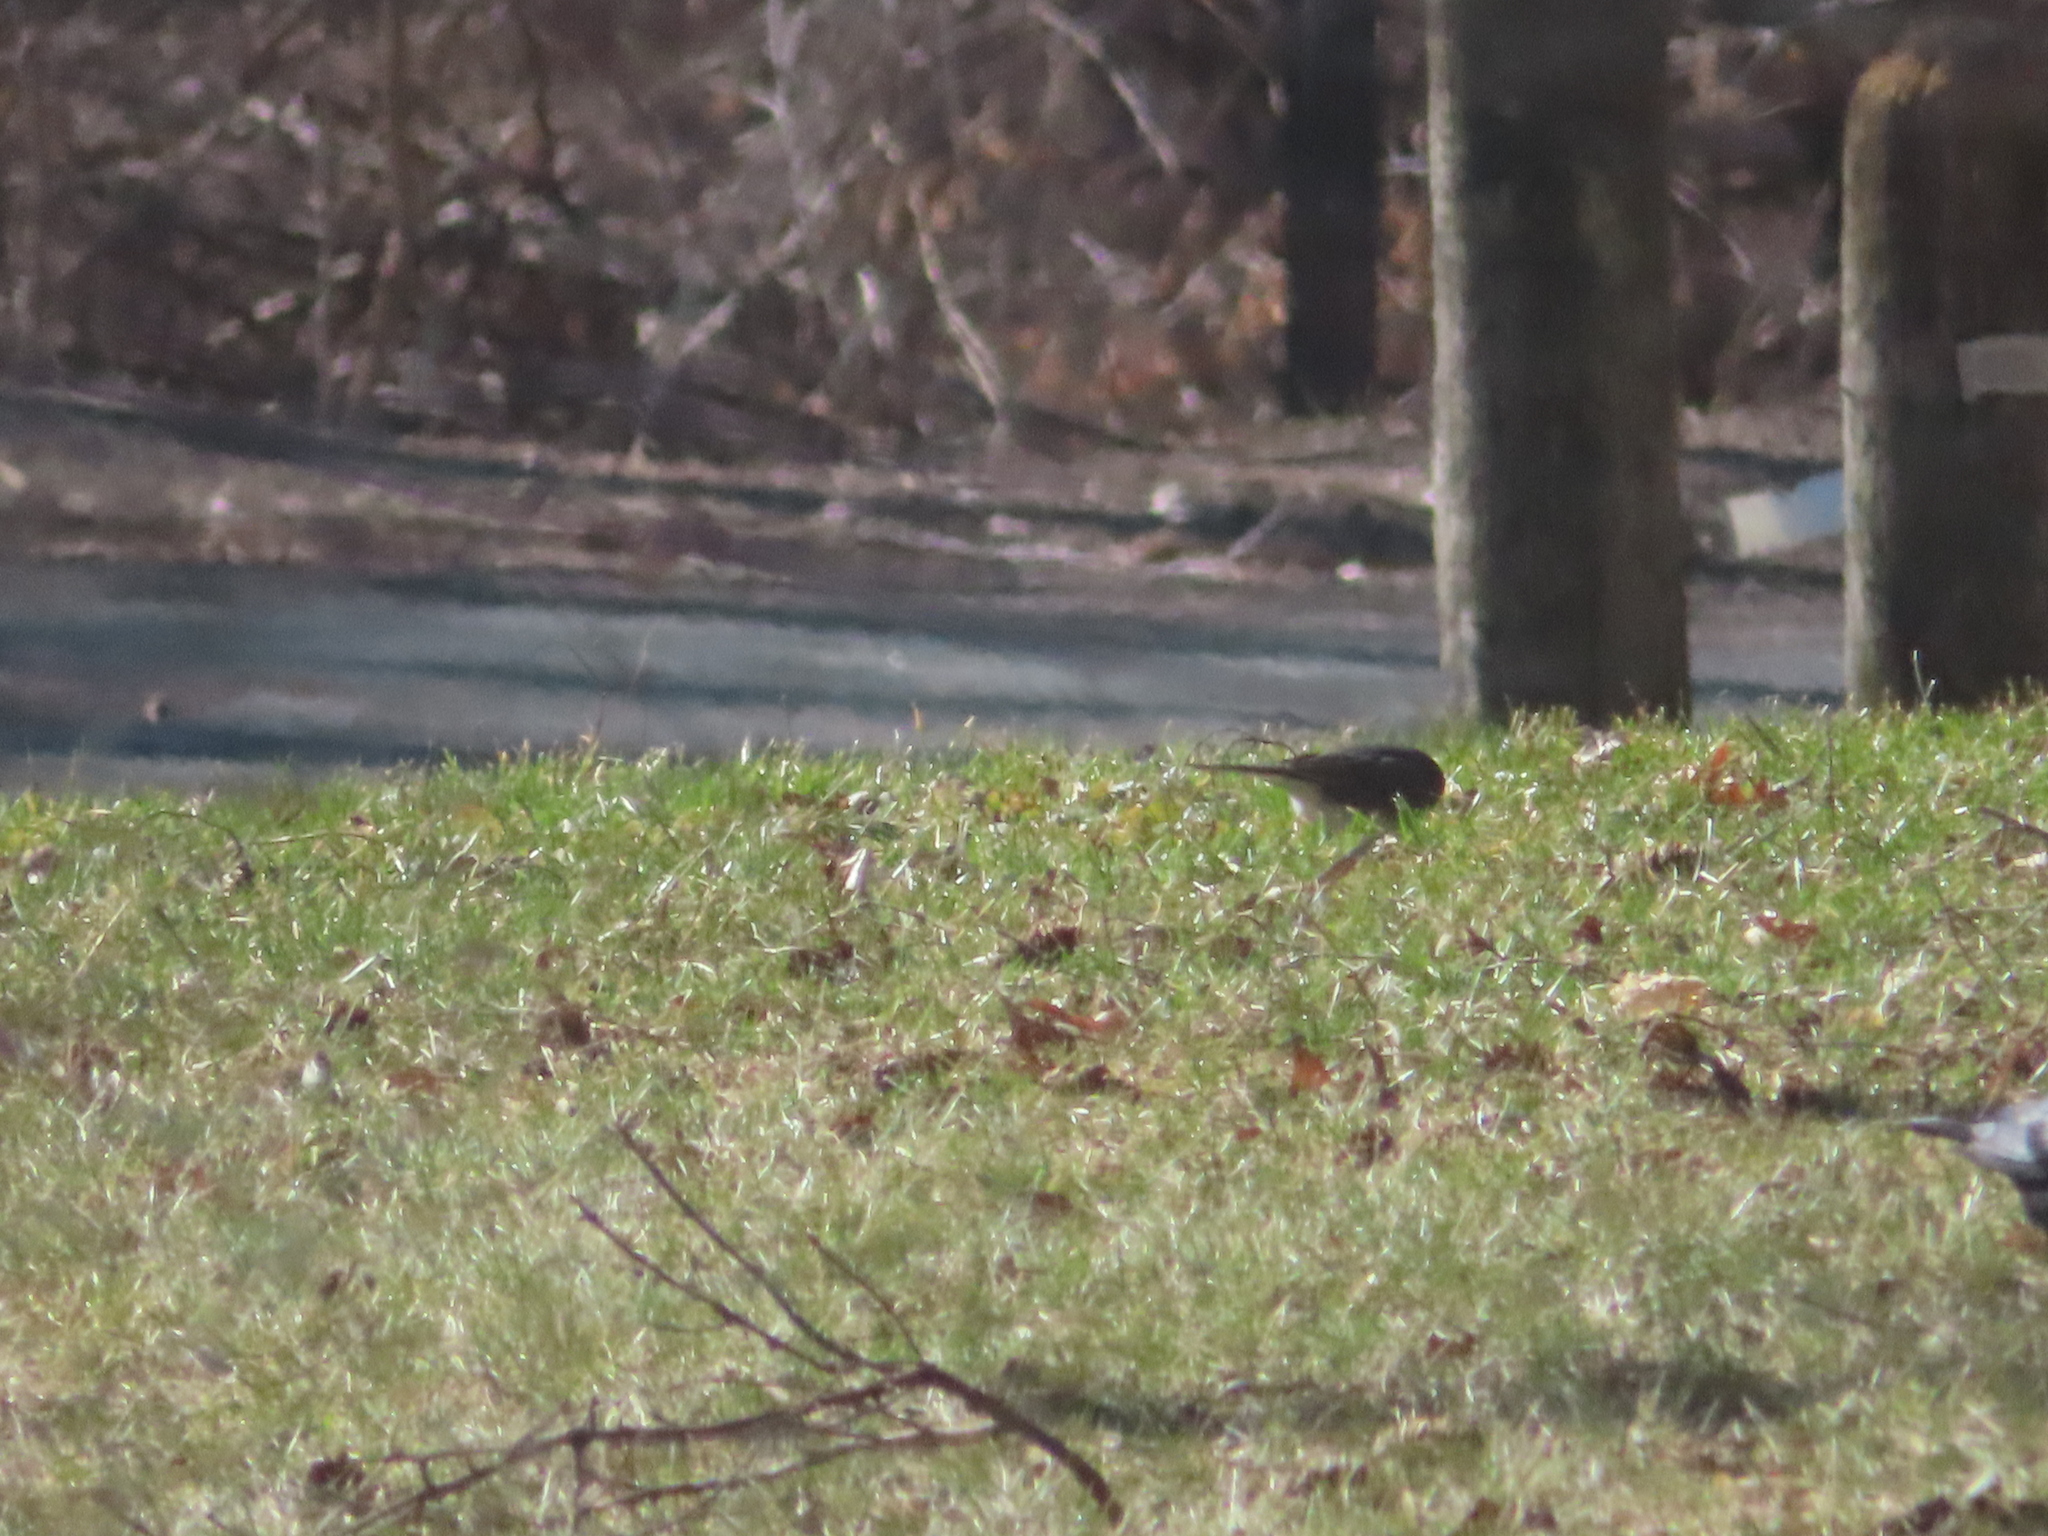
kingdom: Animalia
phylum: Chordata
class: Aves
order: Passeriformes
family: Passerellidae
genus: Junco
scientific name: Junco hyemalis
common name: Dark-eyed junco
